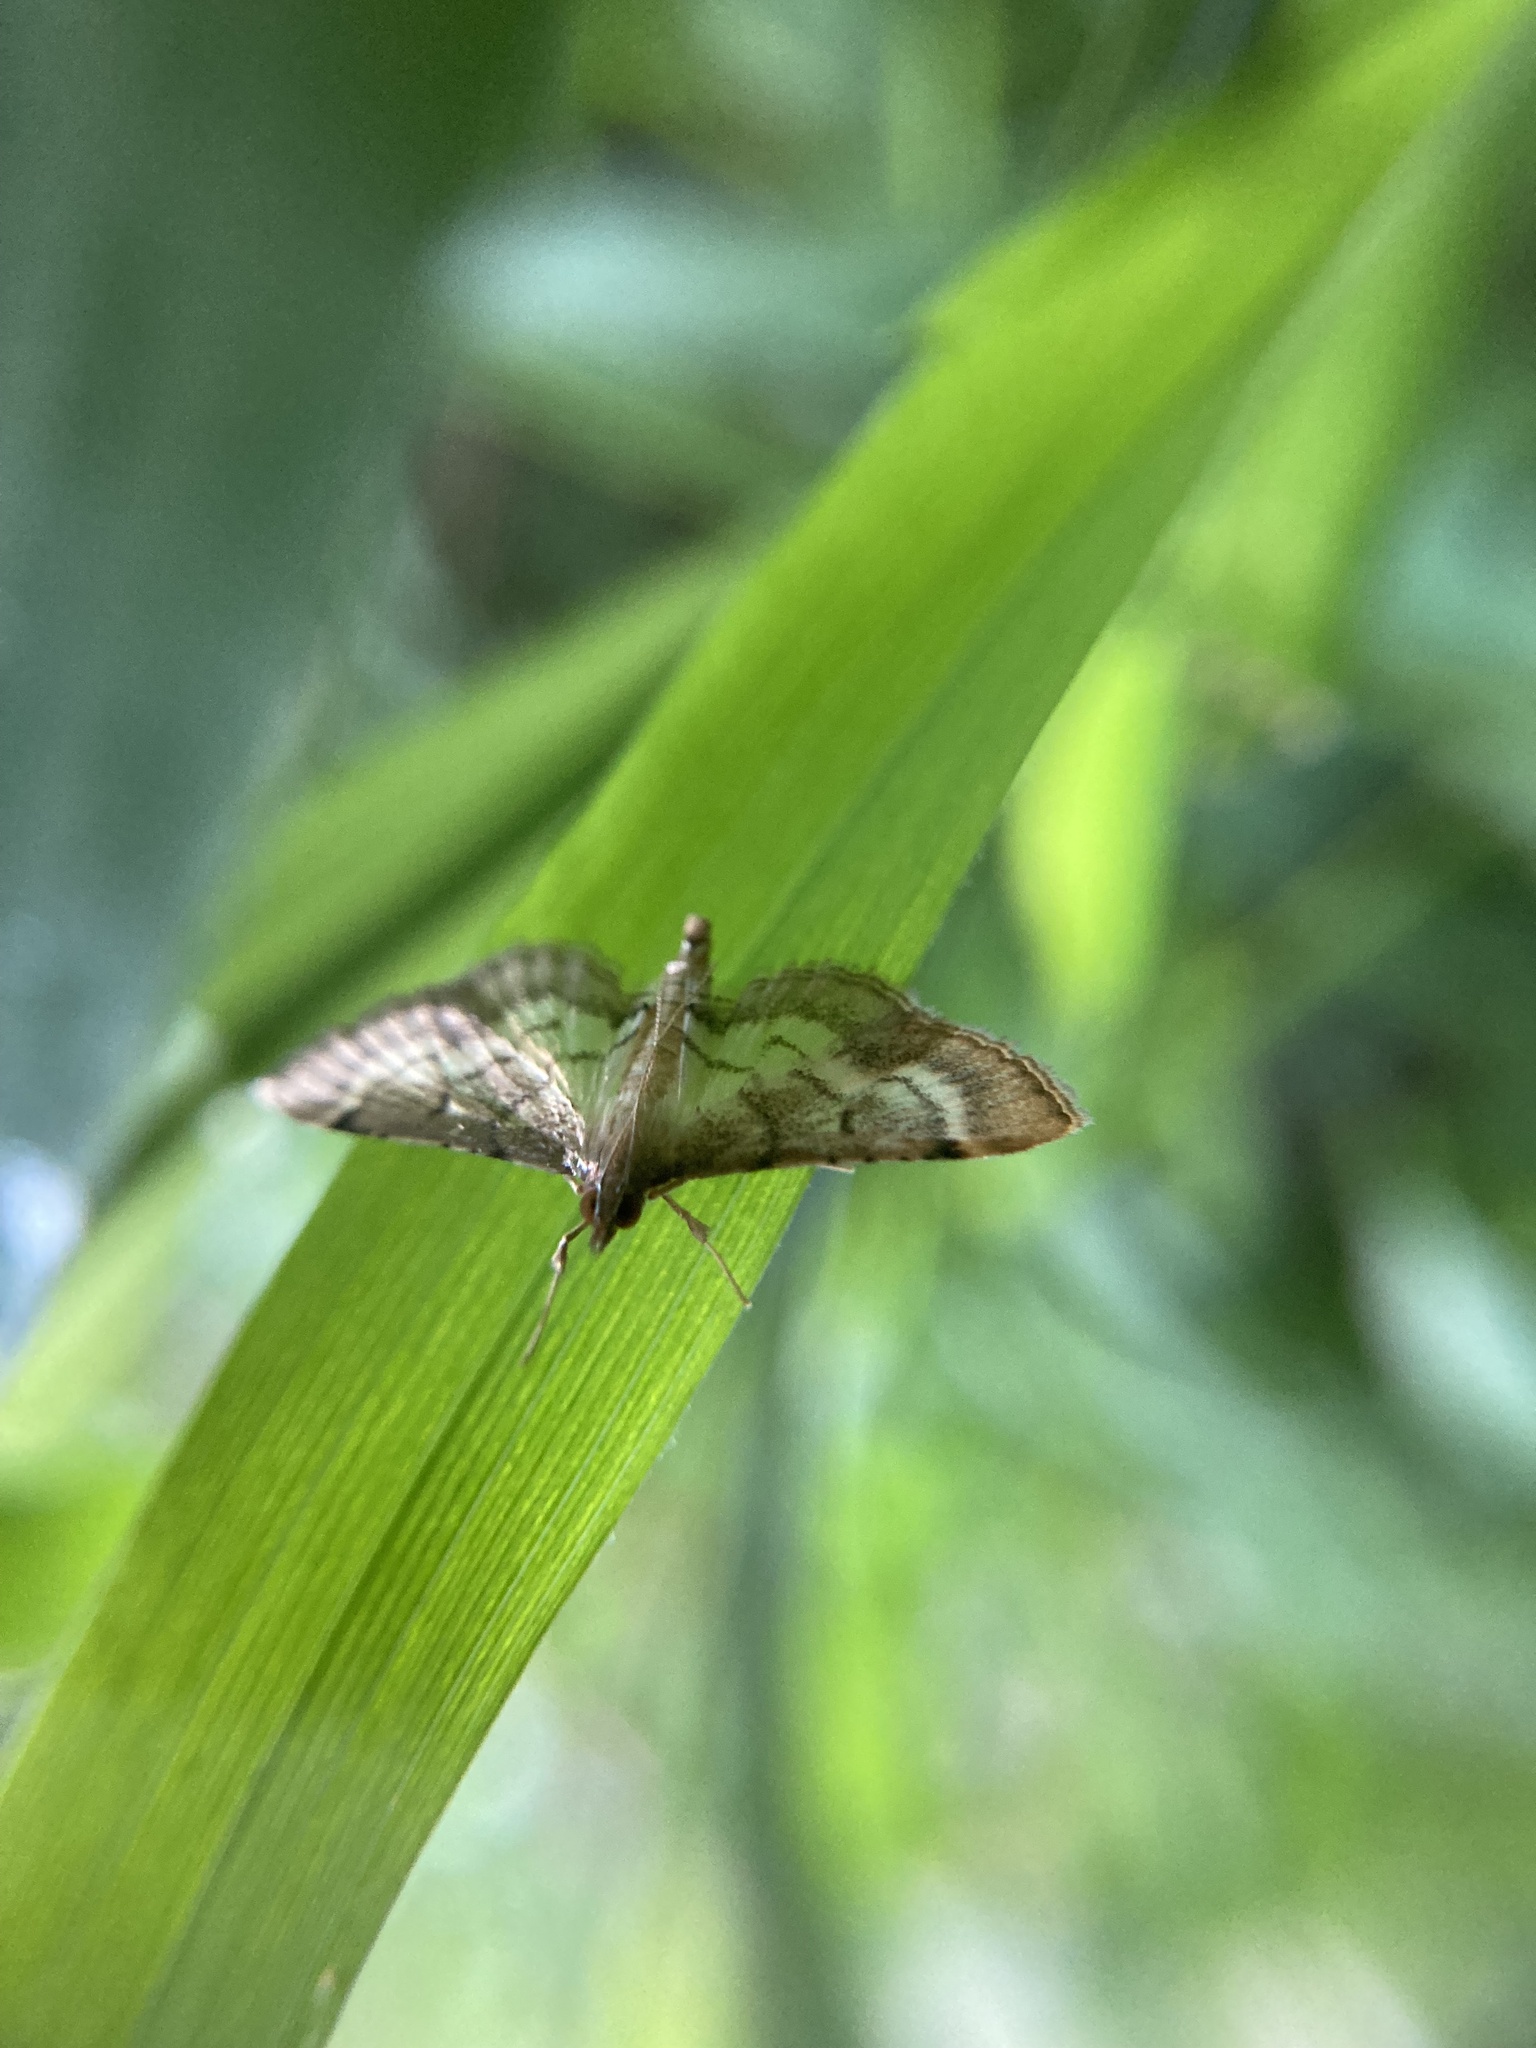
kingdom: Animalia
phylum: Arthropoda
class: Insecta
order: Lepidoptera
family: Crambidae
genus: Cnaphalocrocis
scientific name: Cnaphalocrocis poeyalis
